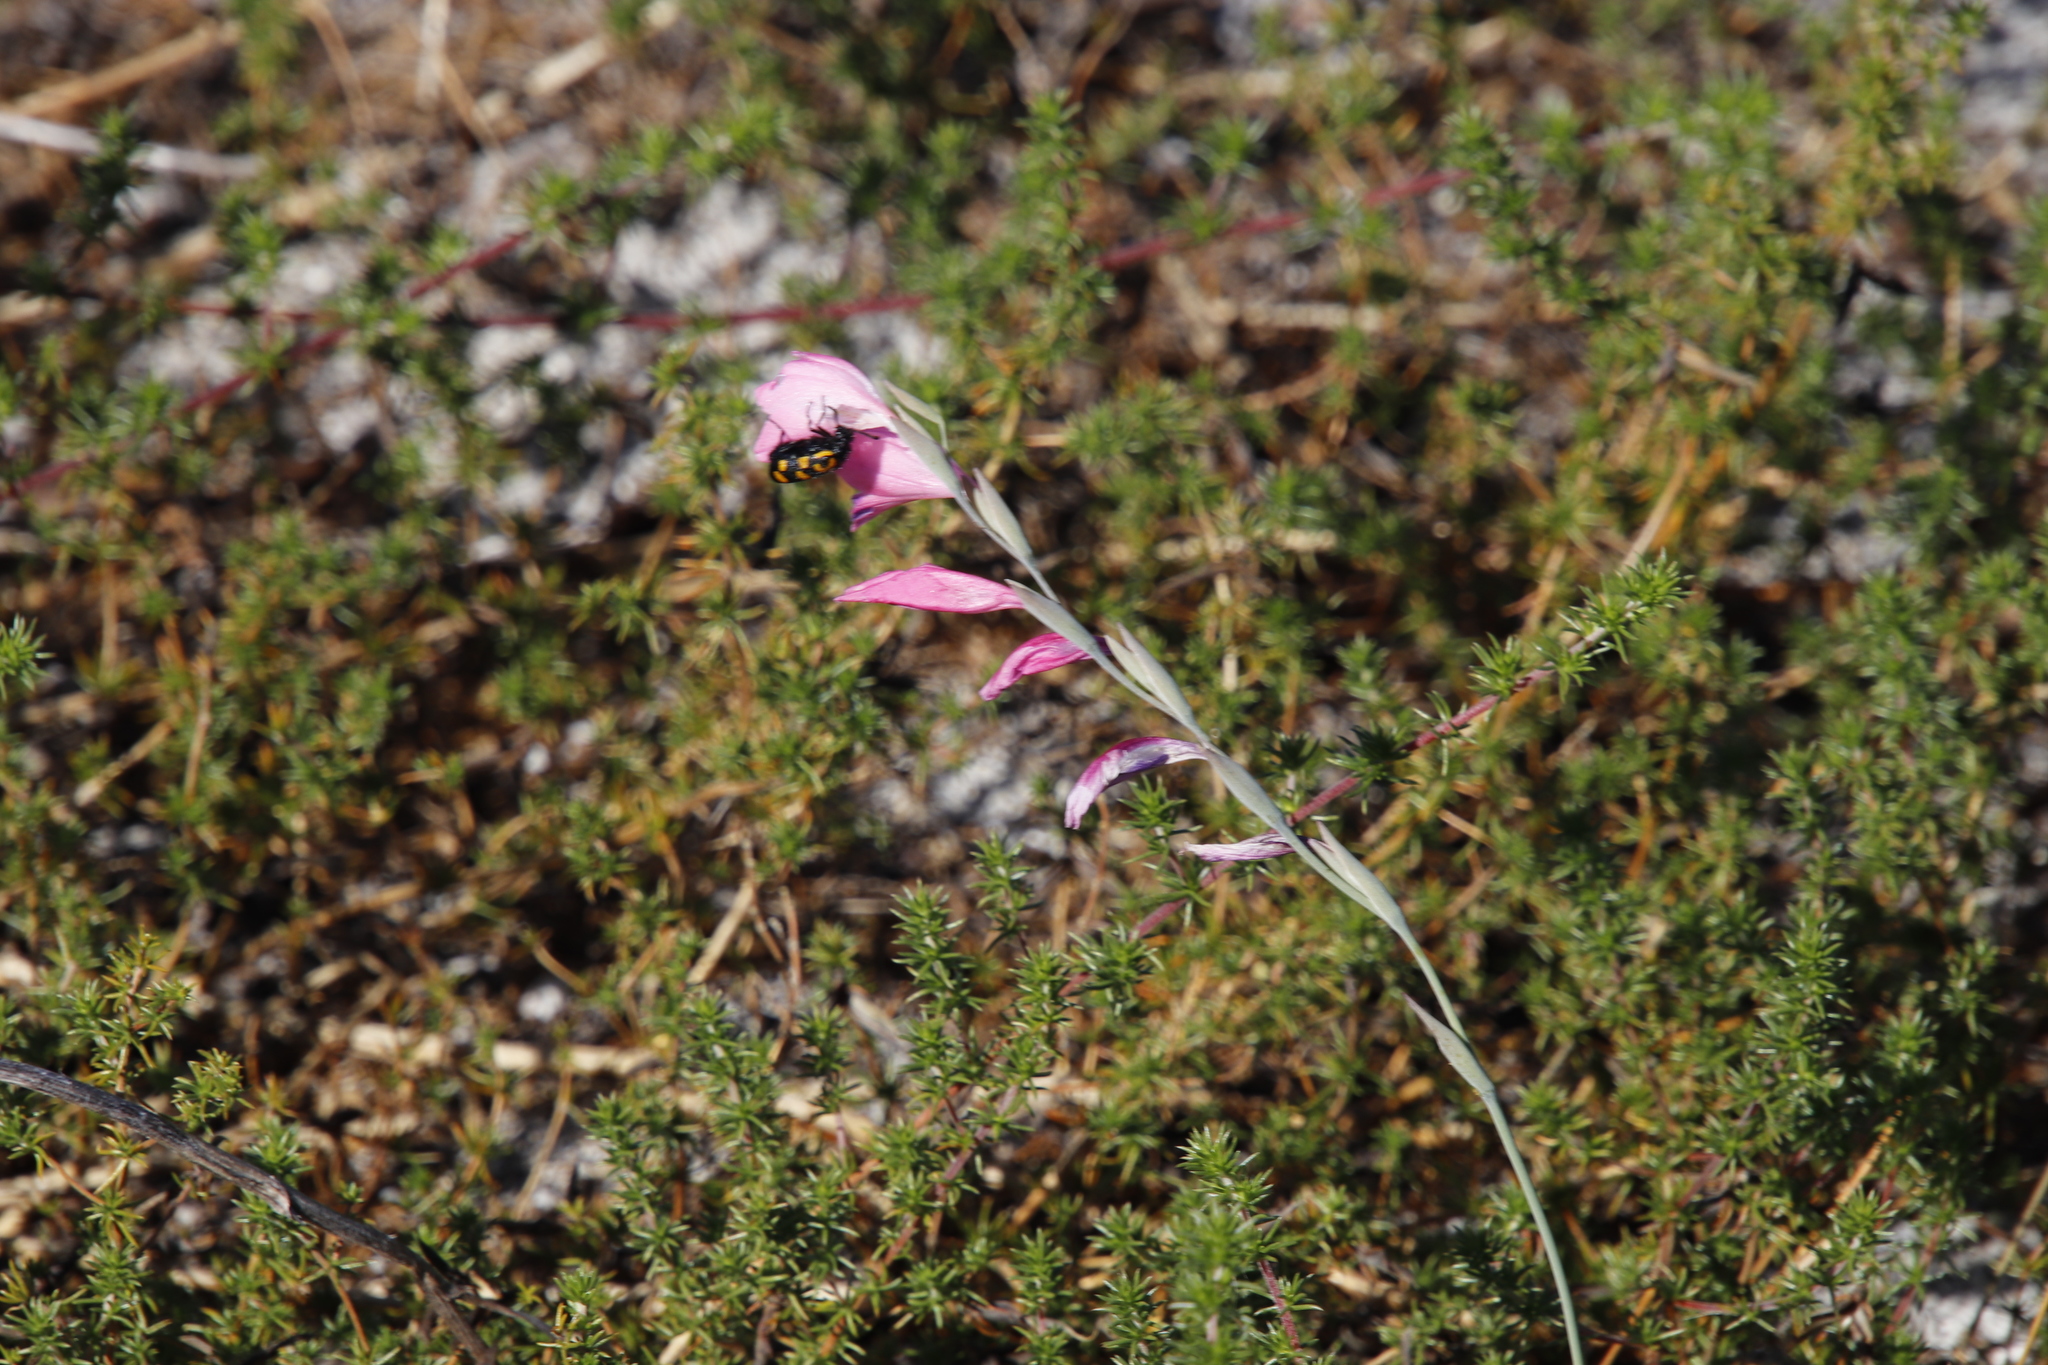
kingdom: Plantae
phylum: Tracheophyta
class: Liliopsida
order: Asparagales
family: Iridaceae
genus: Gladiolus
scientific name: Gladiolus brevifolius
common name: March pypie
